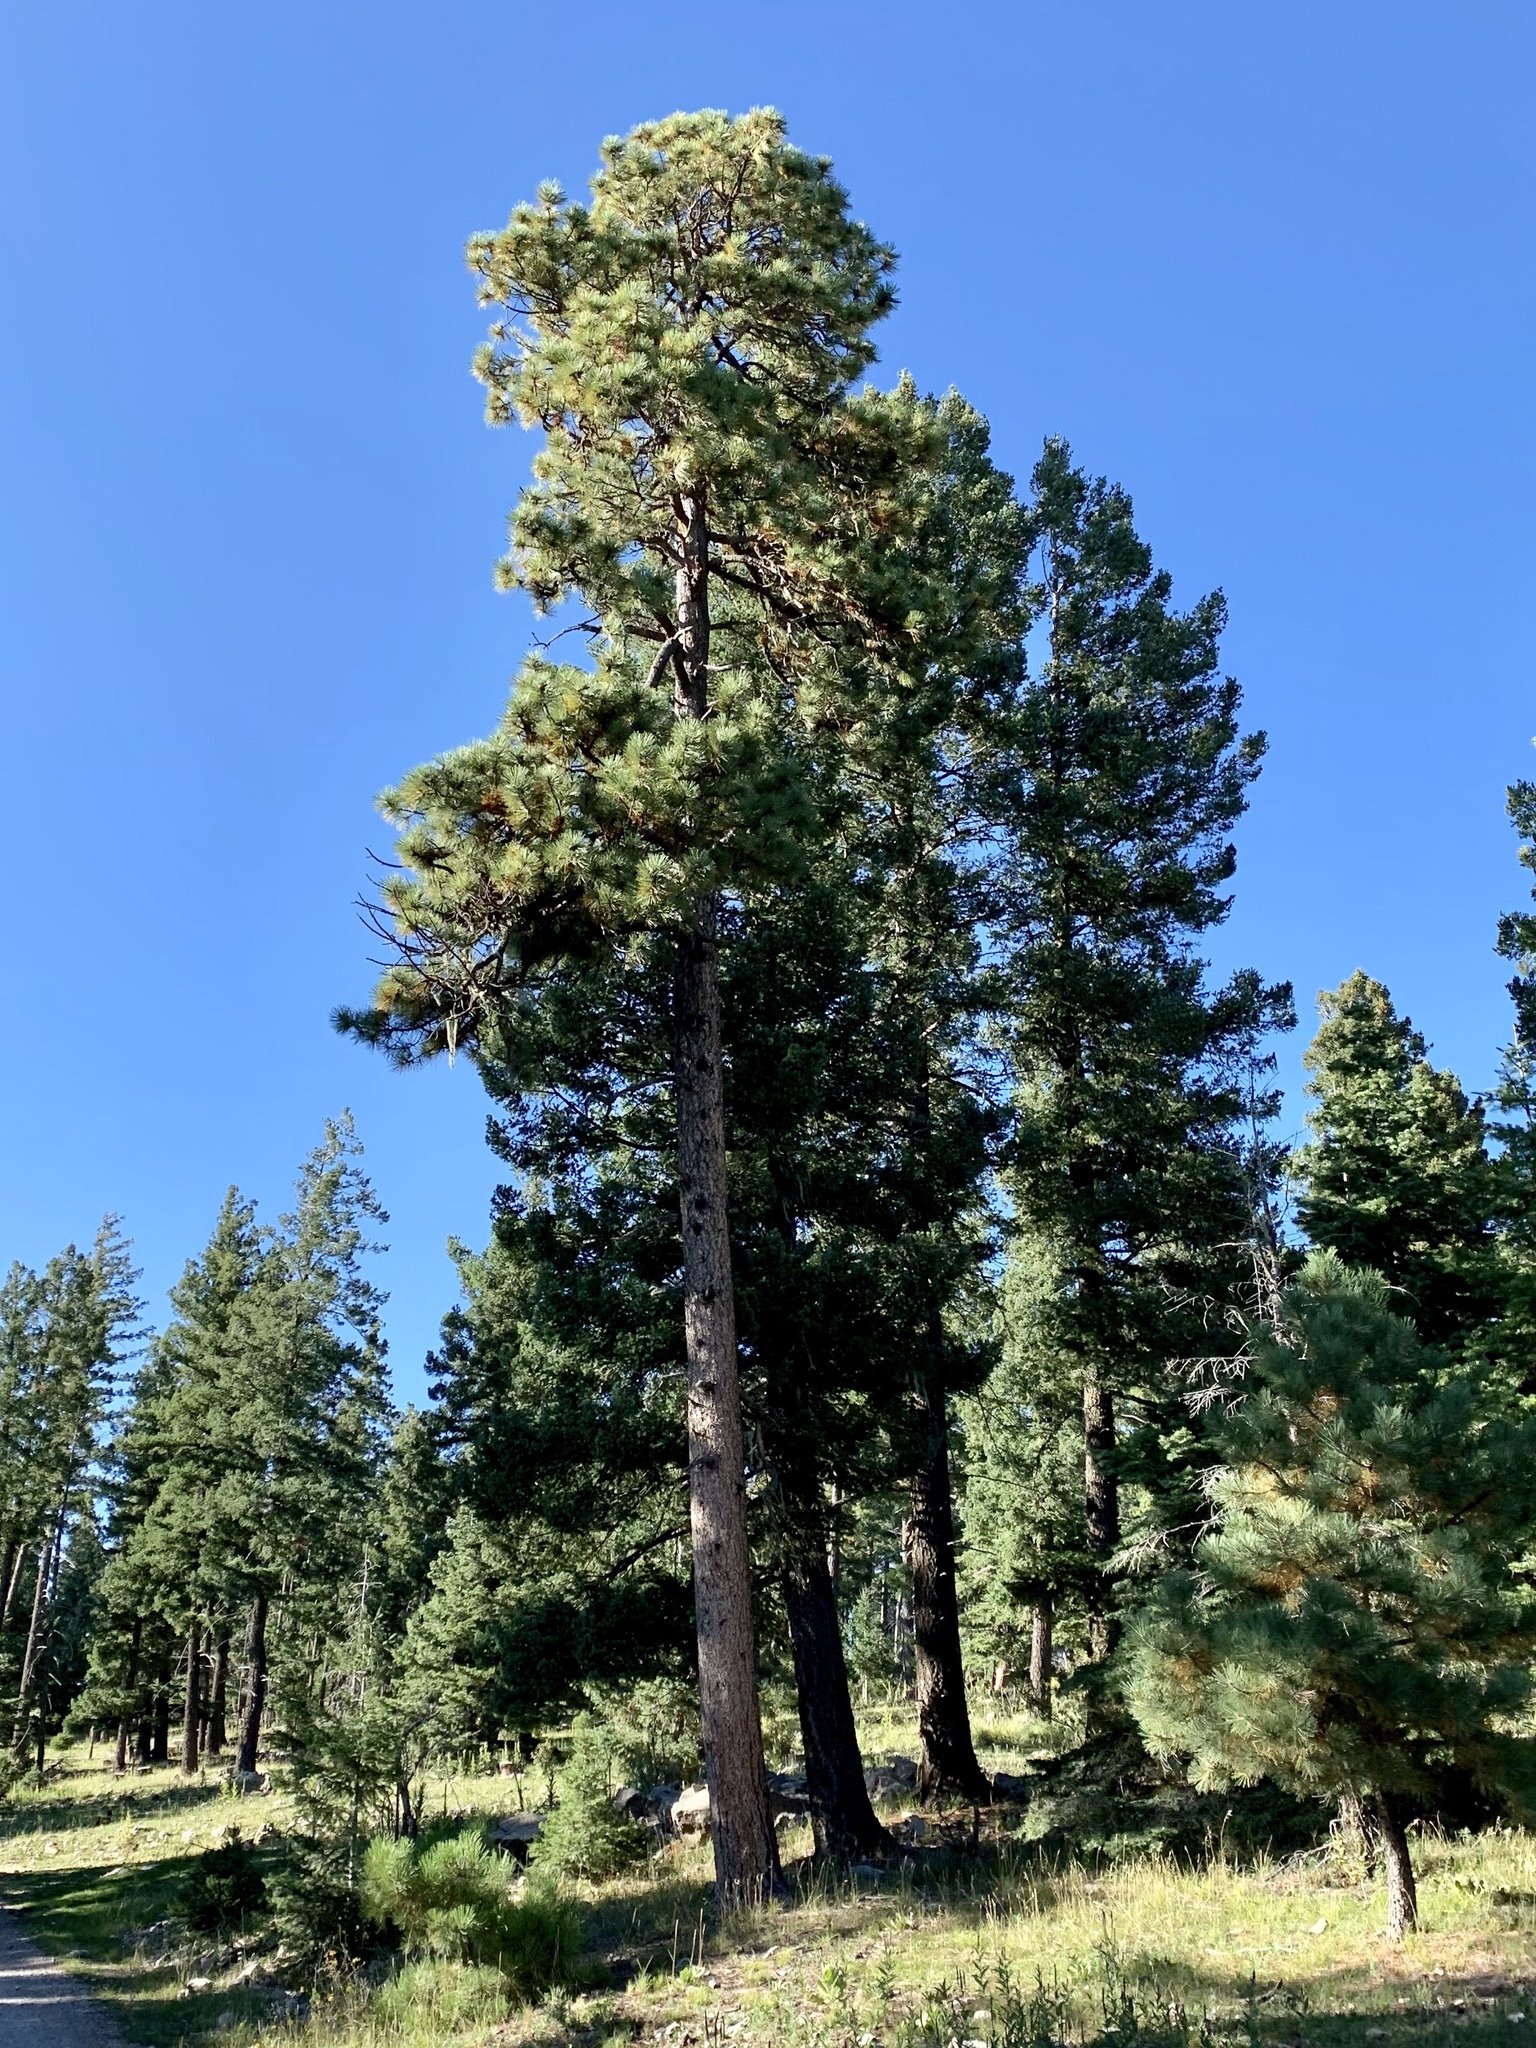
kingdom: Plantae
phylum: Tracheophyta
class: Pinopsida
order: Pinales
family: Pinaceae
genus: Pinus
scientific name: Pinus ponderosa
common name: Western yellow-pine
